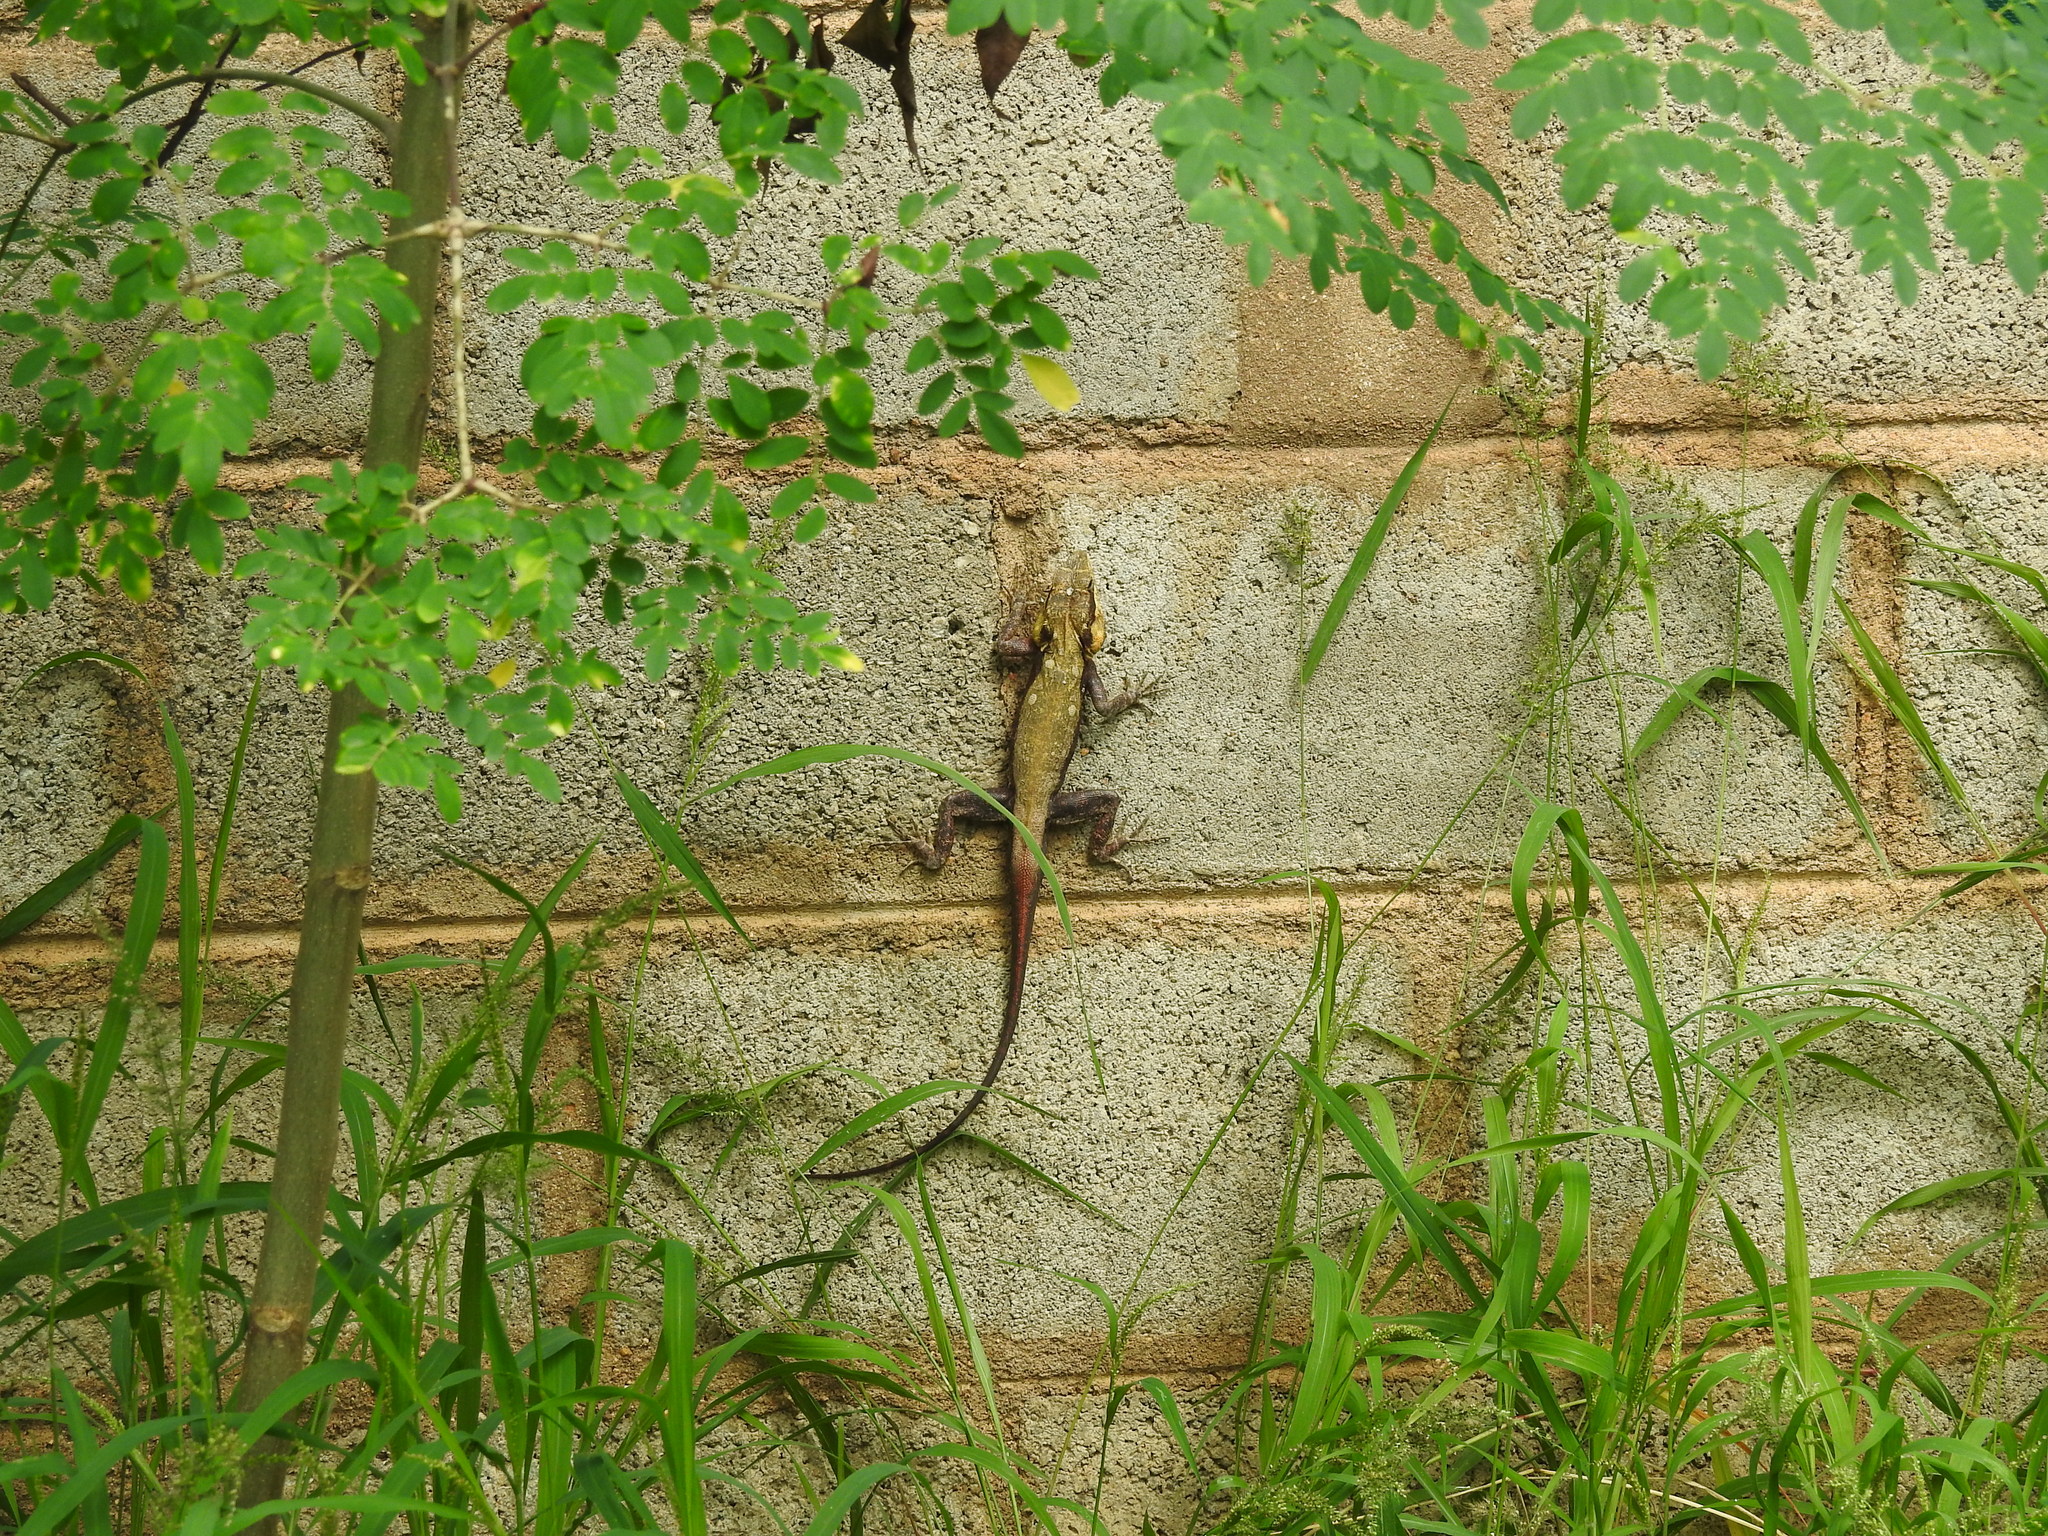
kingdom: Animalia
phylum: Chordata
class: Squamata
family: Agamidae
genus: Psammophilus
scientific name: Psammophilus dorsalis
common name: South indian rock agama
